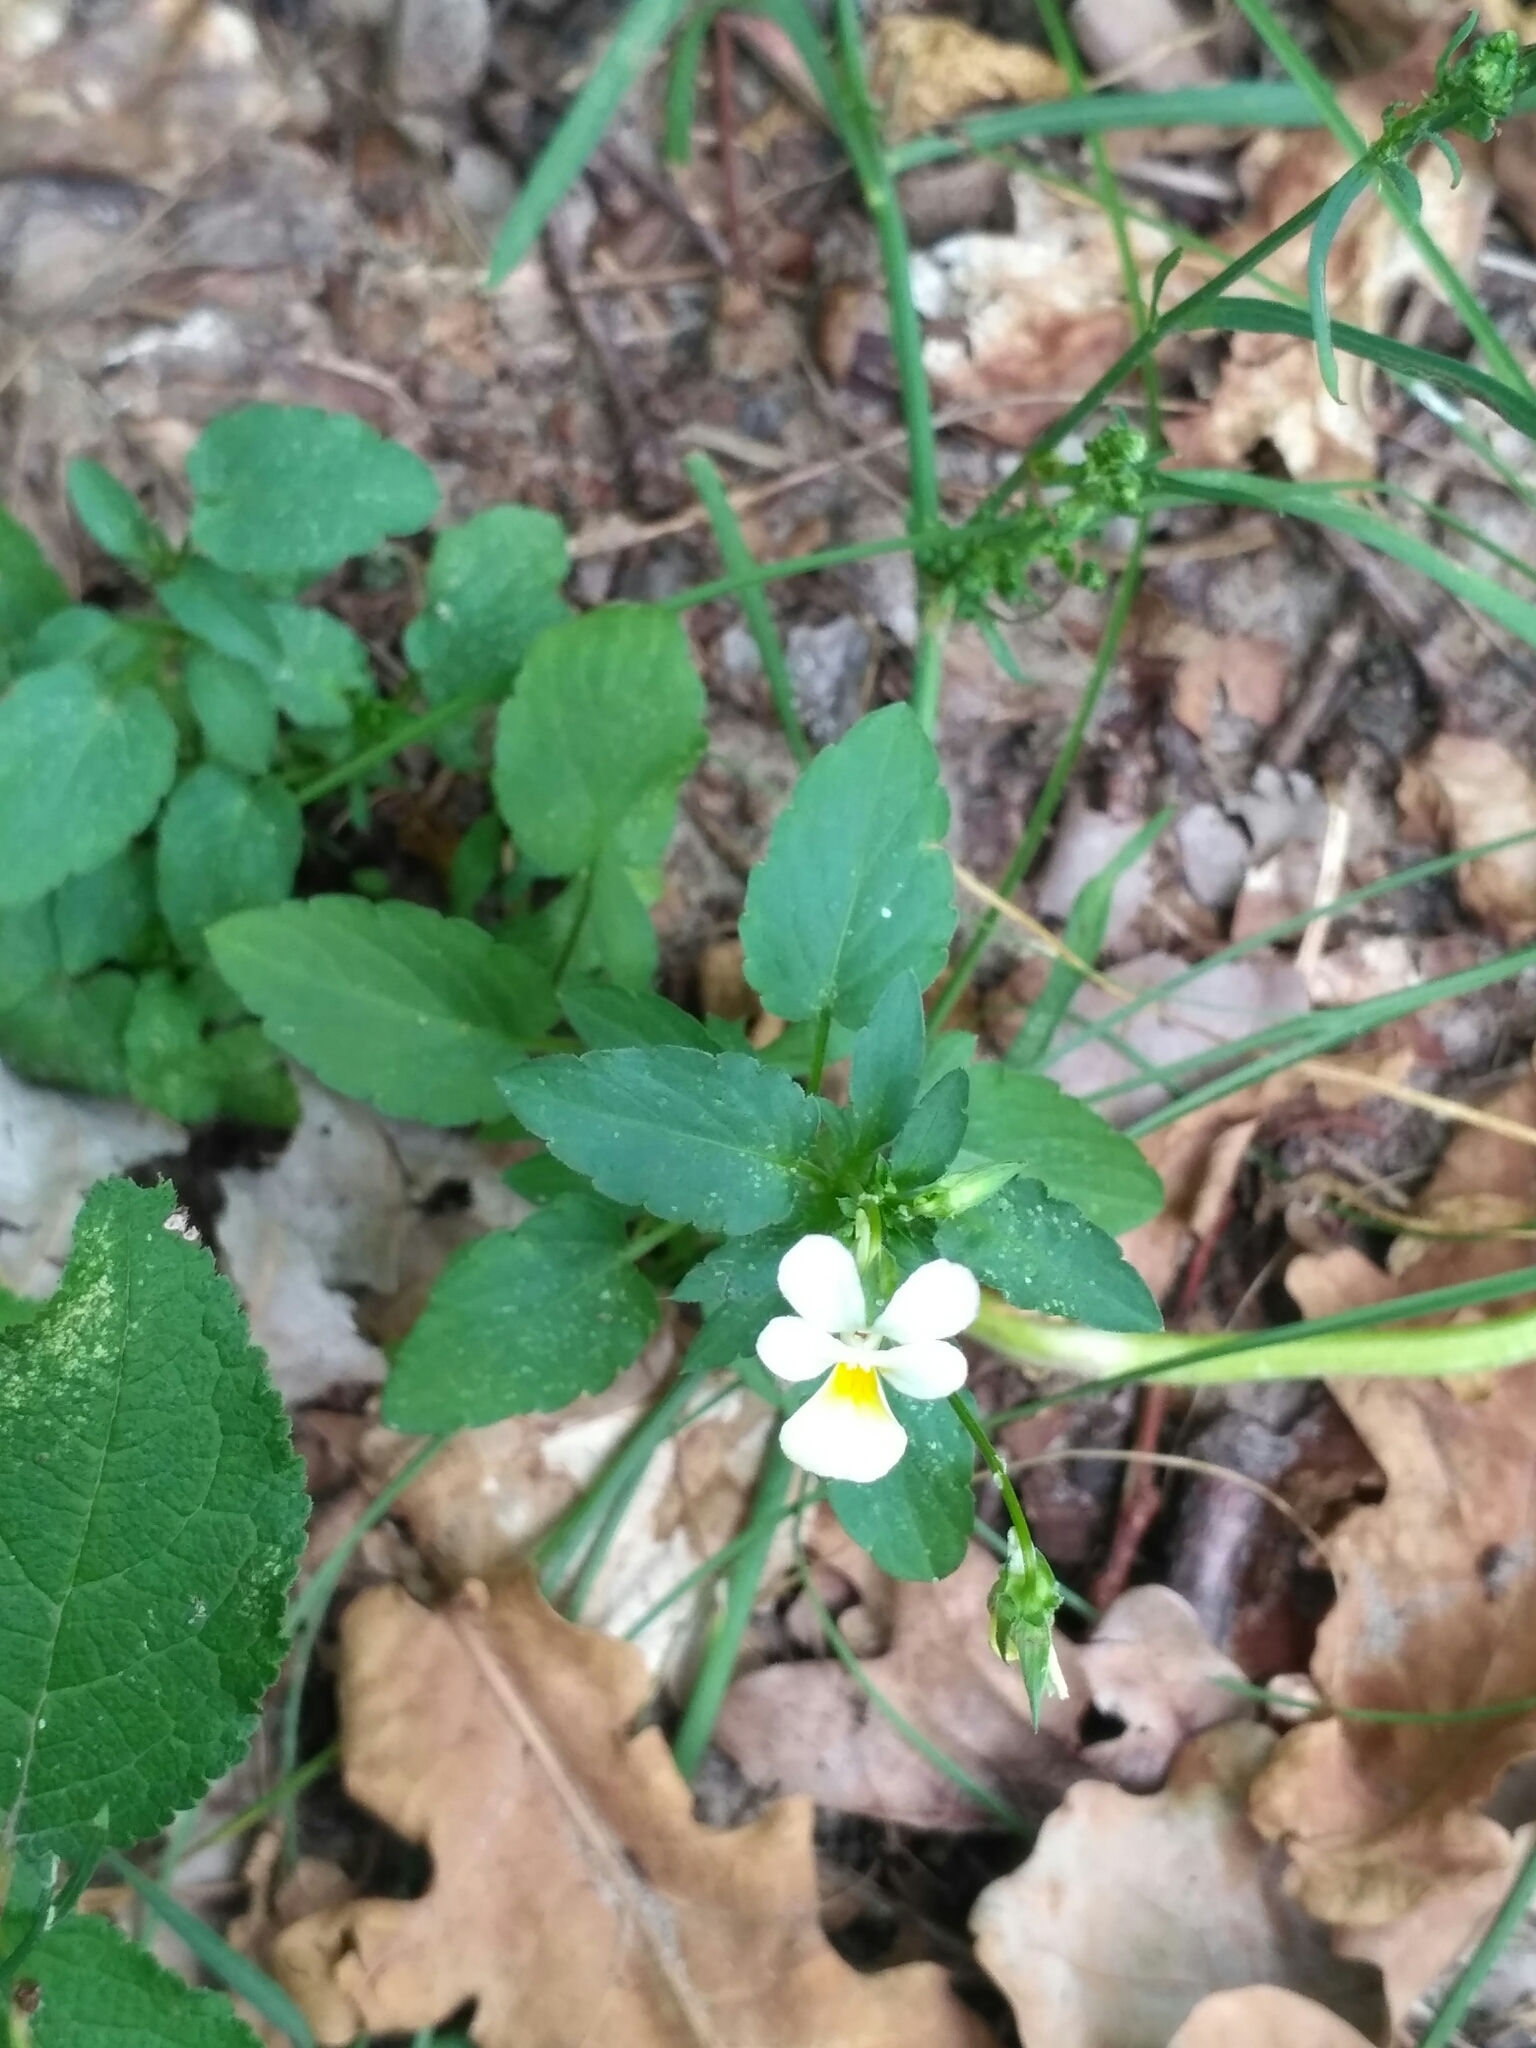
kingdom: Plantae
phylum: Tracheophyta
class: Magnoliopsida
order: Malpighiales
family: Violaceae
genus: Viola
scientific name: Viola arvensis
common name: Field pansy
